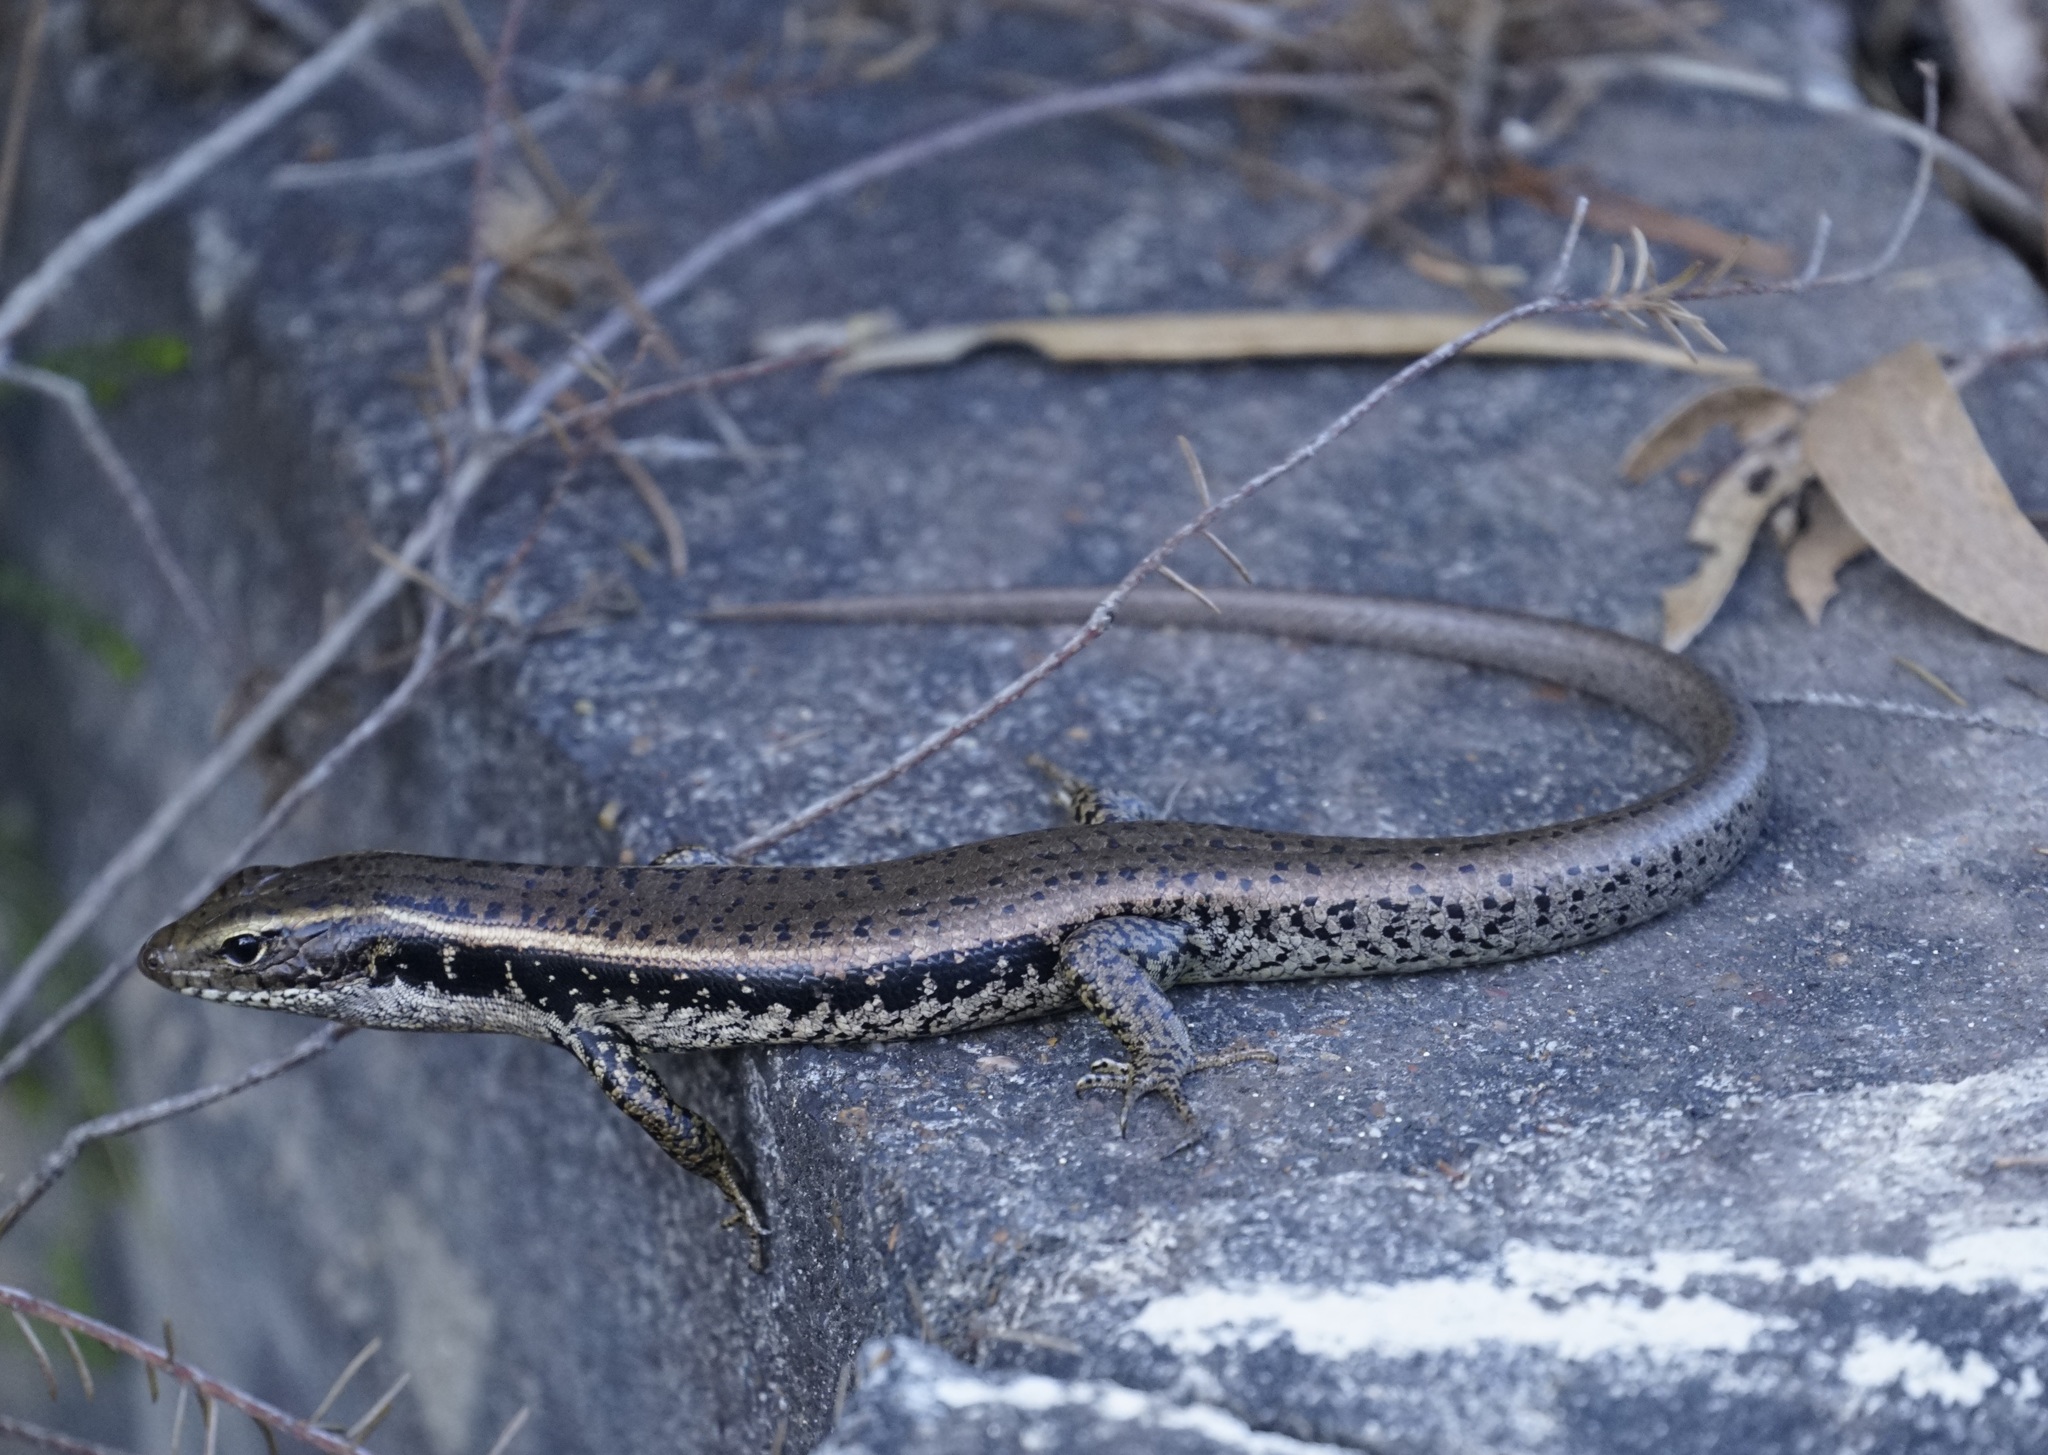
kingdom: Animalia
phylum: Chordata
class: Squamata
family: Scincidae
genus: Eulamprus
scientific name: Eulamprus quoyii
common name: Eastern water skink
